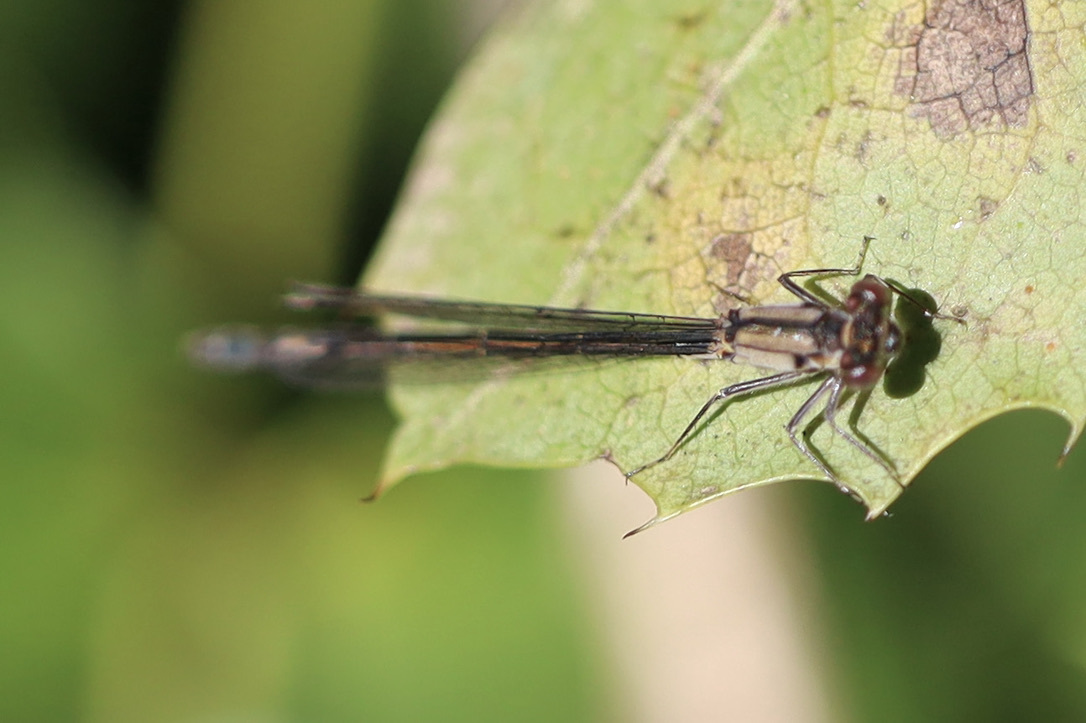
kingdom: Animalia
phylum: Arthropoda
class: Insecta
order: Odonata
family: Coenagrionidae
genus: Ischnura
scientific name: Ischnura cervula
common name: Pacific forktail
